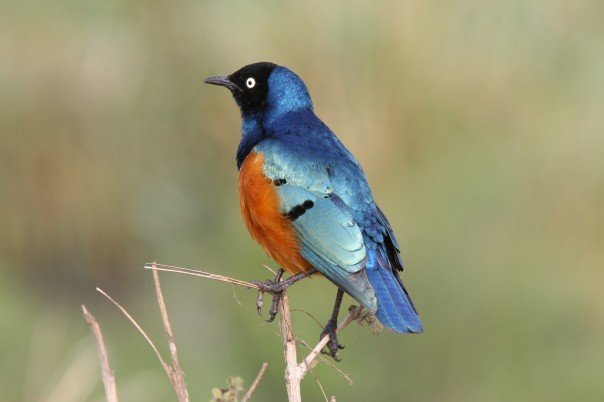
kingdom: Animalia
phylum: Chordata
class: Aves
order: Passeriformes
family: Sturnidae
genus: Lamprotornis
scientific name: Lamprotornis superbus
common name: Superb starling
